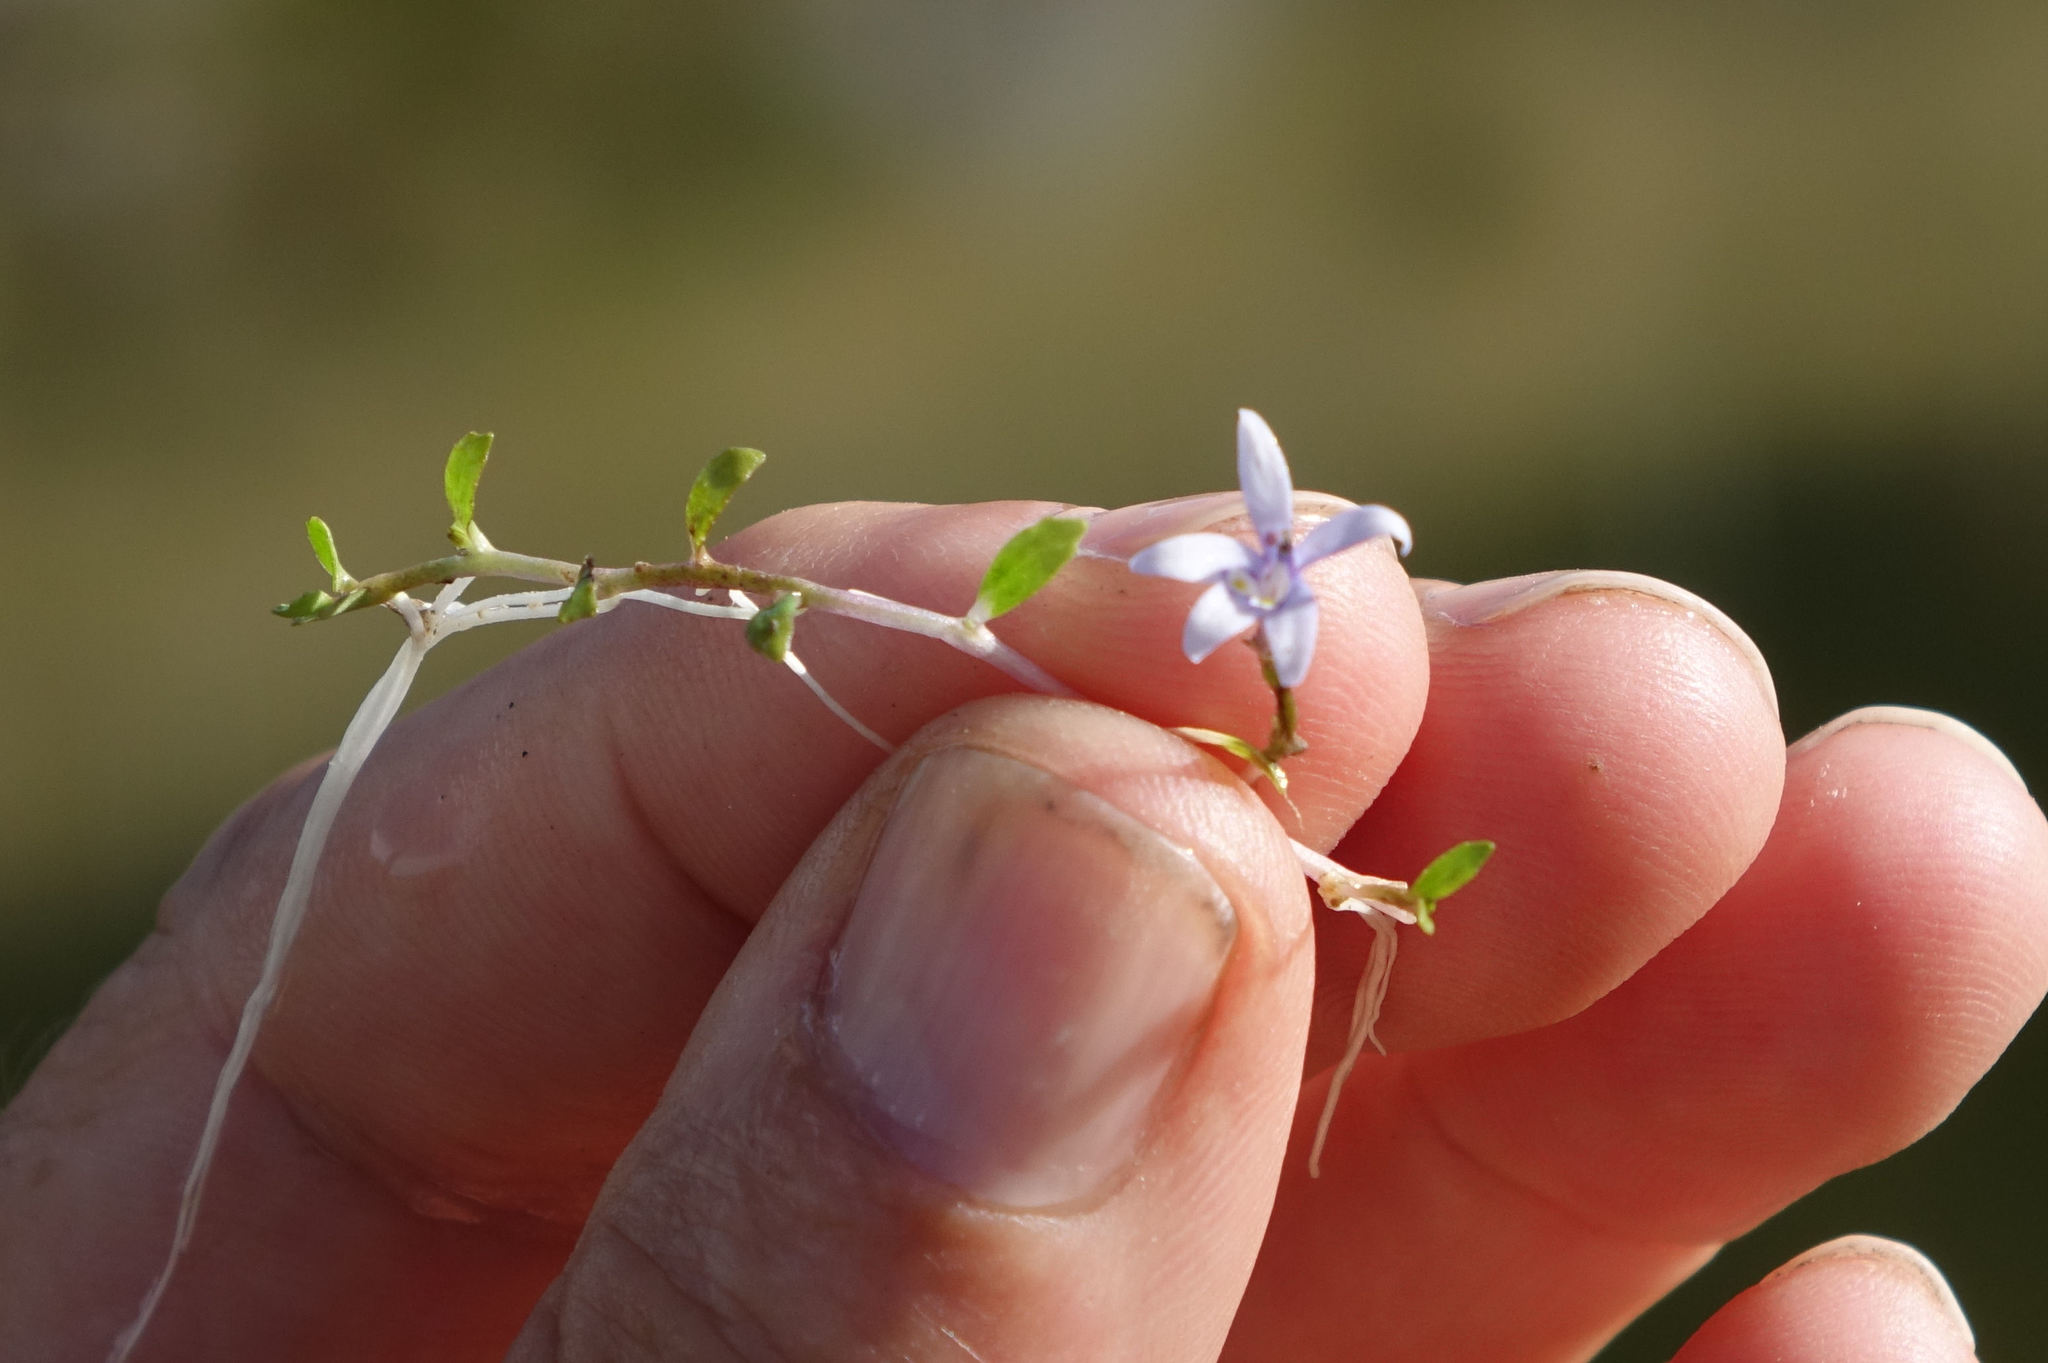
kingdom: Plantae
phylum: Tracheophyta
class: Magnoliopsida
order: Asterales
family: Campanulaceae
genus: Isotoma
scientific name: Isotoma rivalis
